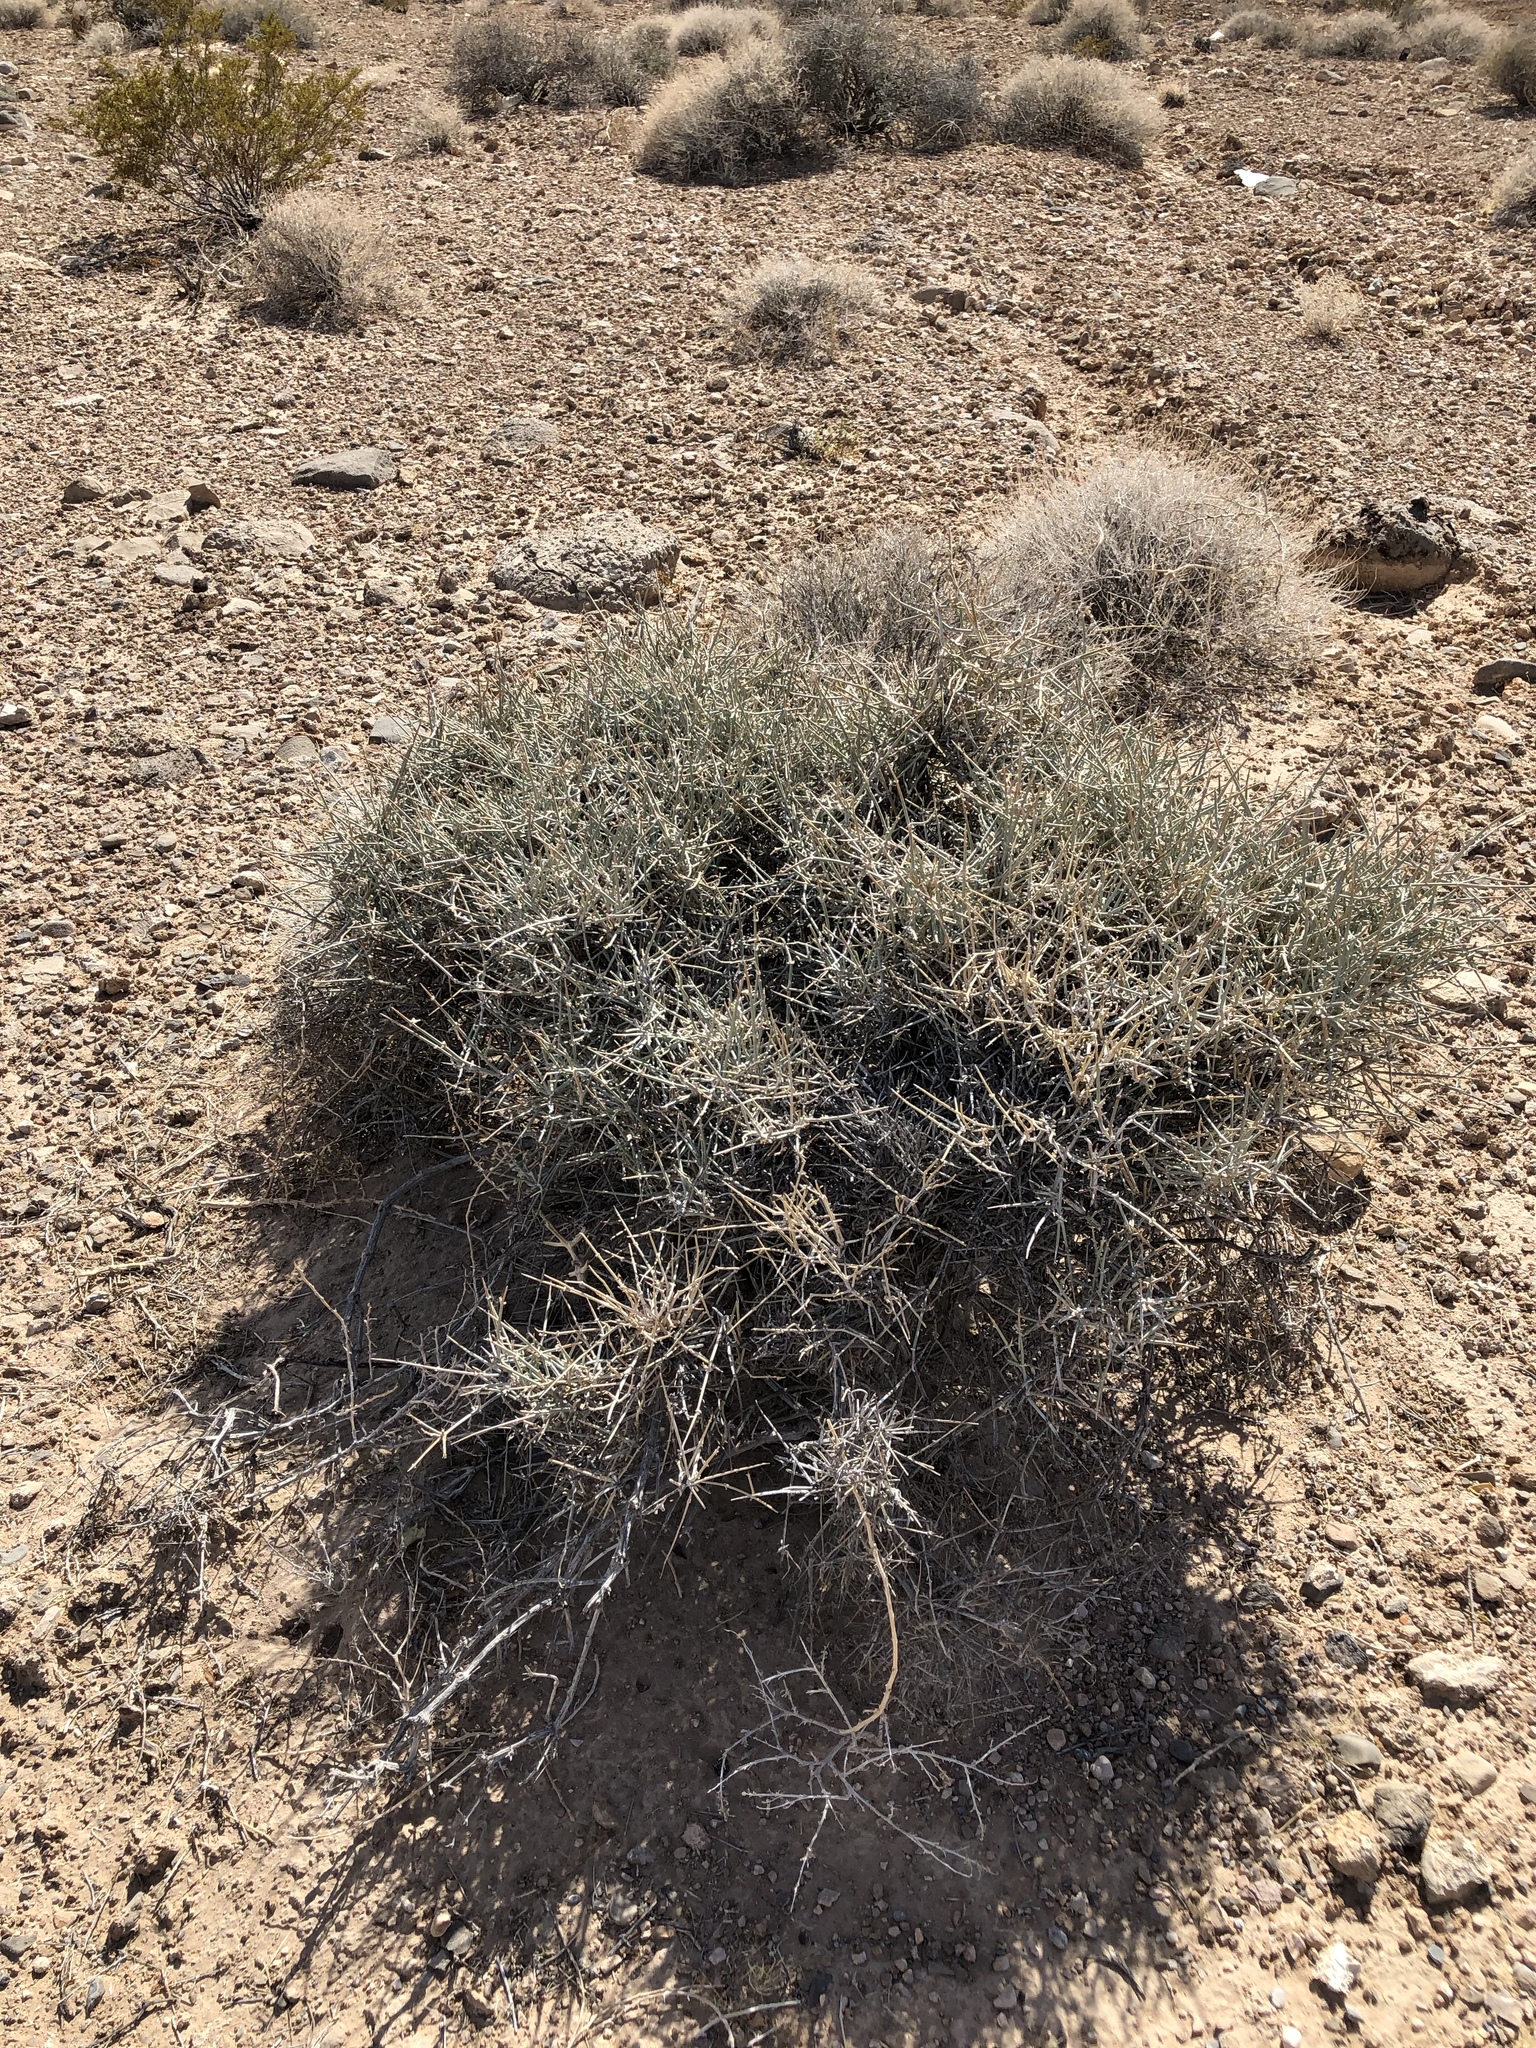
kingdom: Plantae
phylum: Tracheophyta
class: Gnetopsida
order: Ephedrales
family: Ephedraceae
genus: Ephedra
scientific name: Ephedra nevadensis
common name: Gray ephedra
